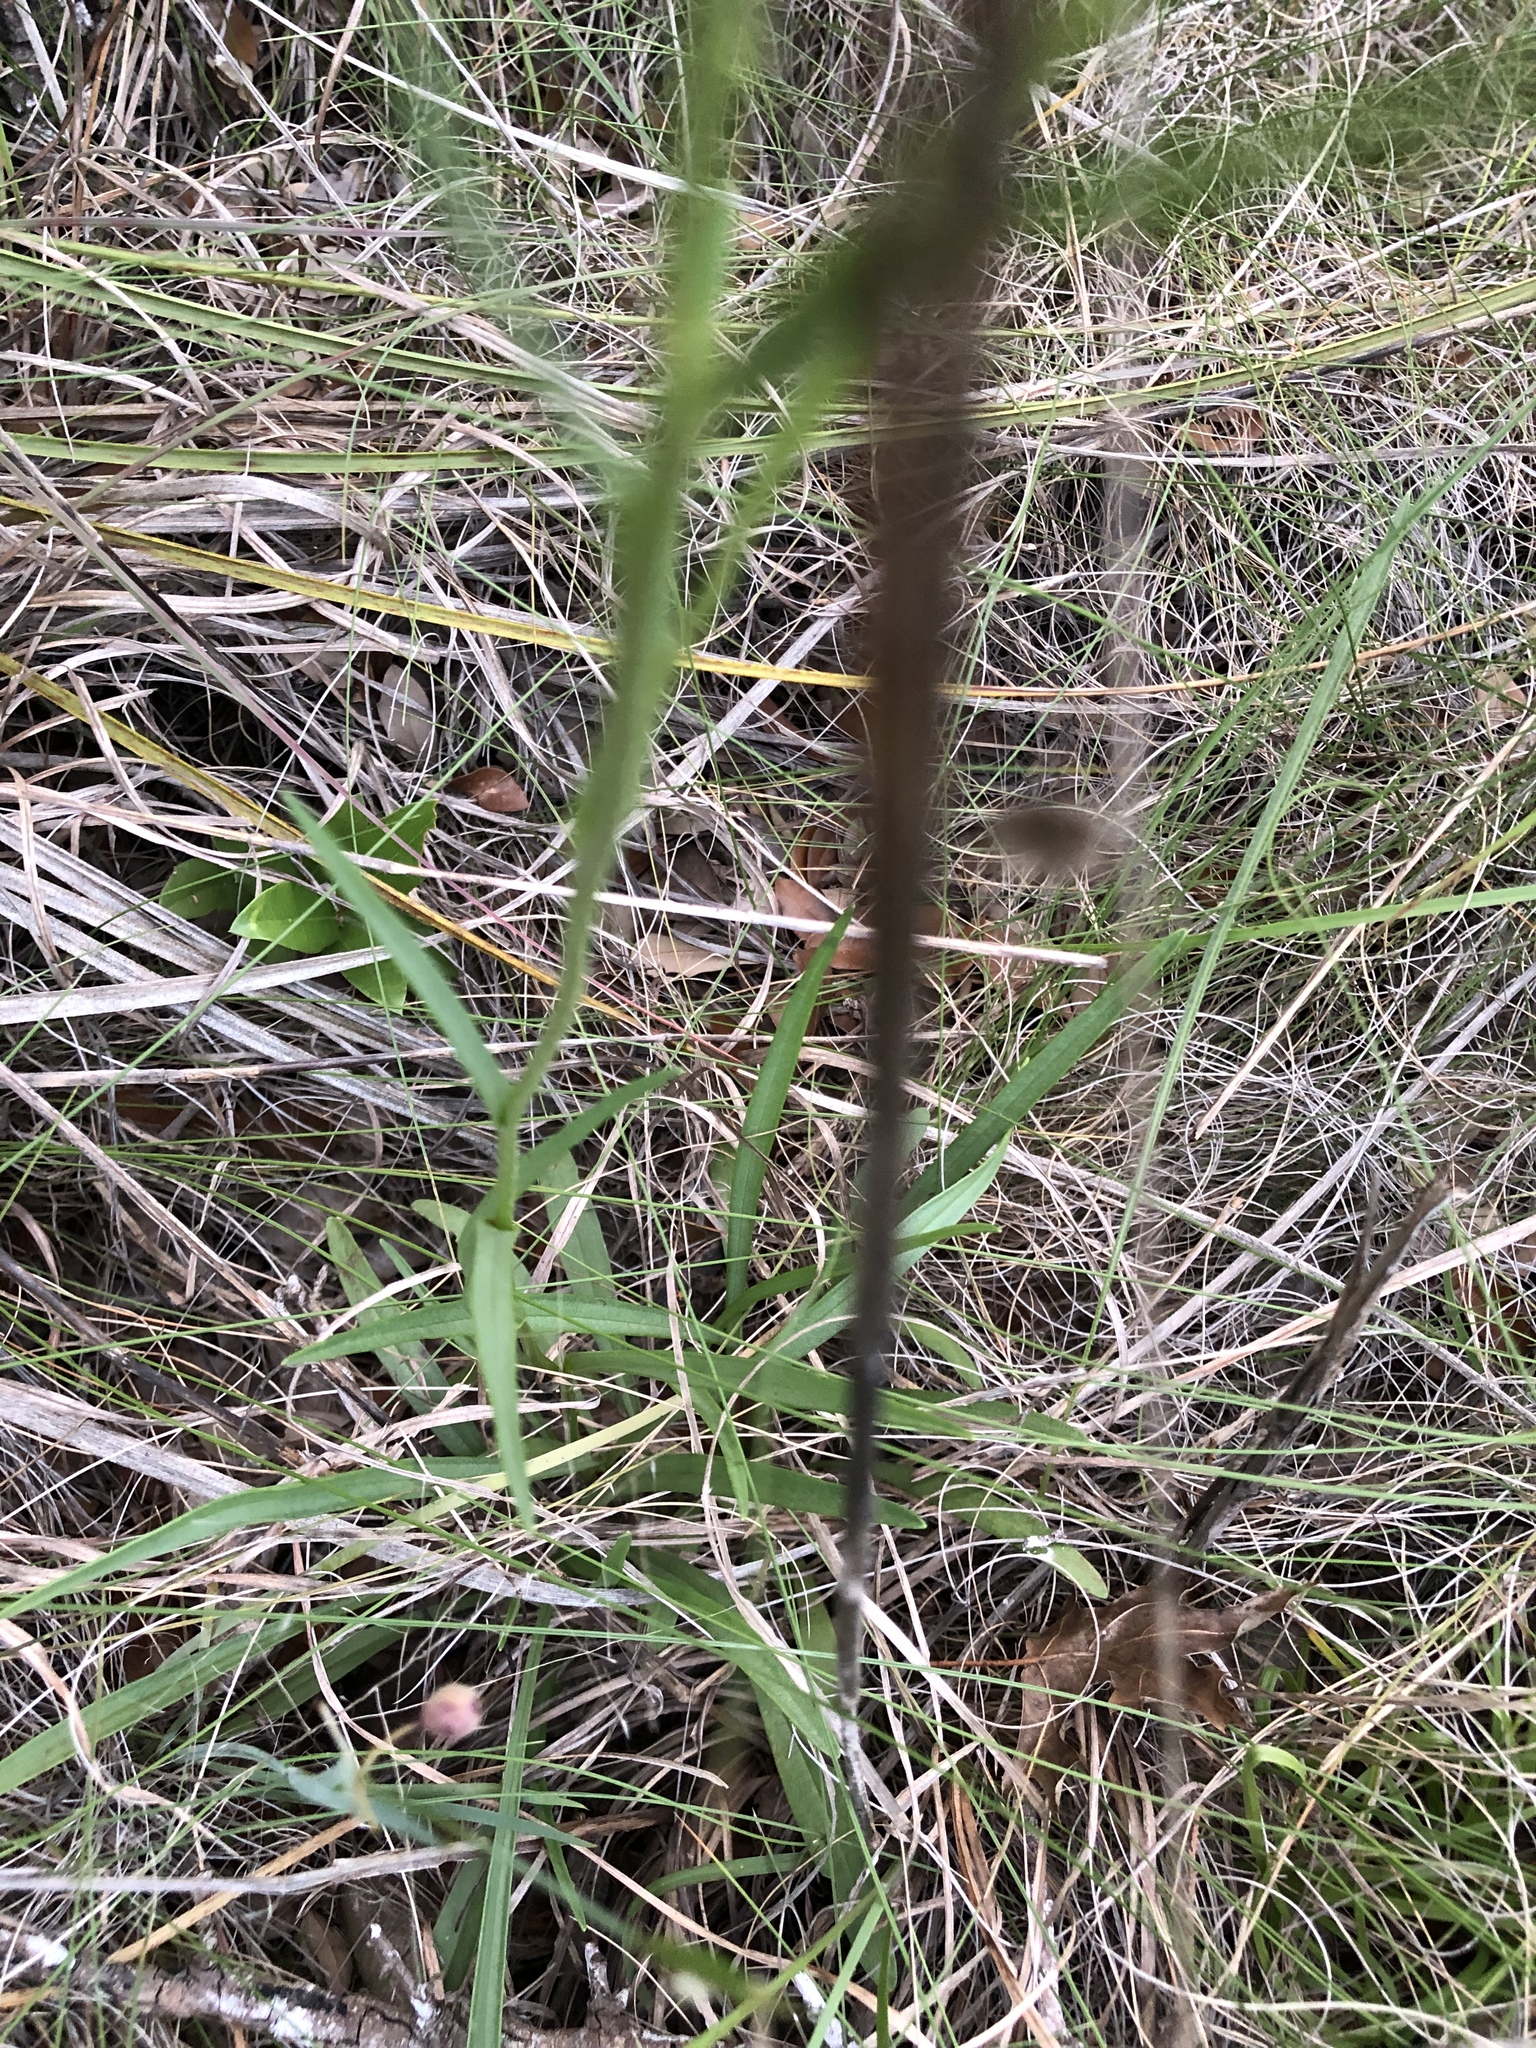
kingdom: Plantae
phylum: Tracheophyta
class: Magnoliopsida
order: Asterales
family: Asteraceae
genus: Marshallia
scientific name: Marshallia caespitosa
